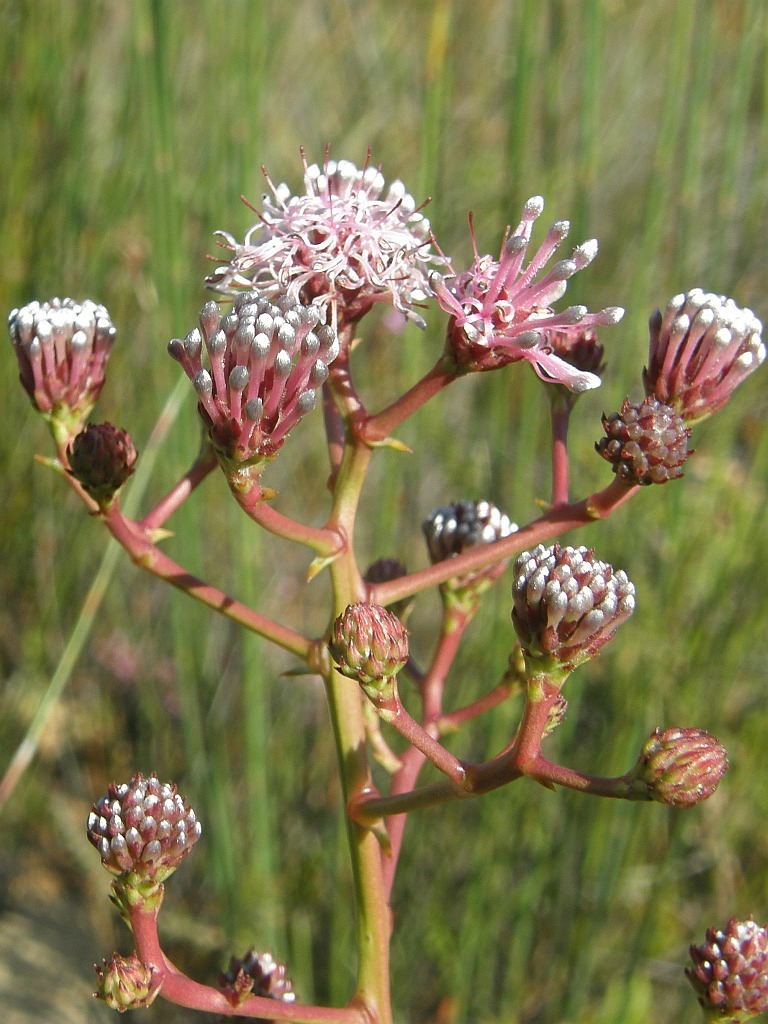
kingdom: Plantae
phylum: Tracheophyta
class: Magnoliopsida
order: Proteales
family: Proteaceae
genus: Serruria
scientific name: Serruria williamsii
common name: King spiderhead
